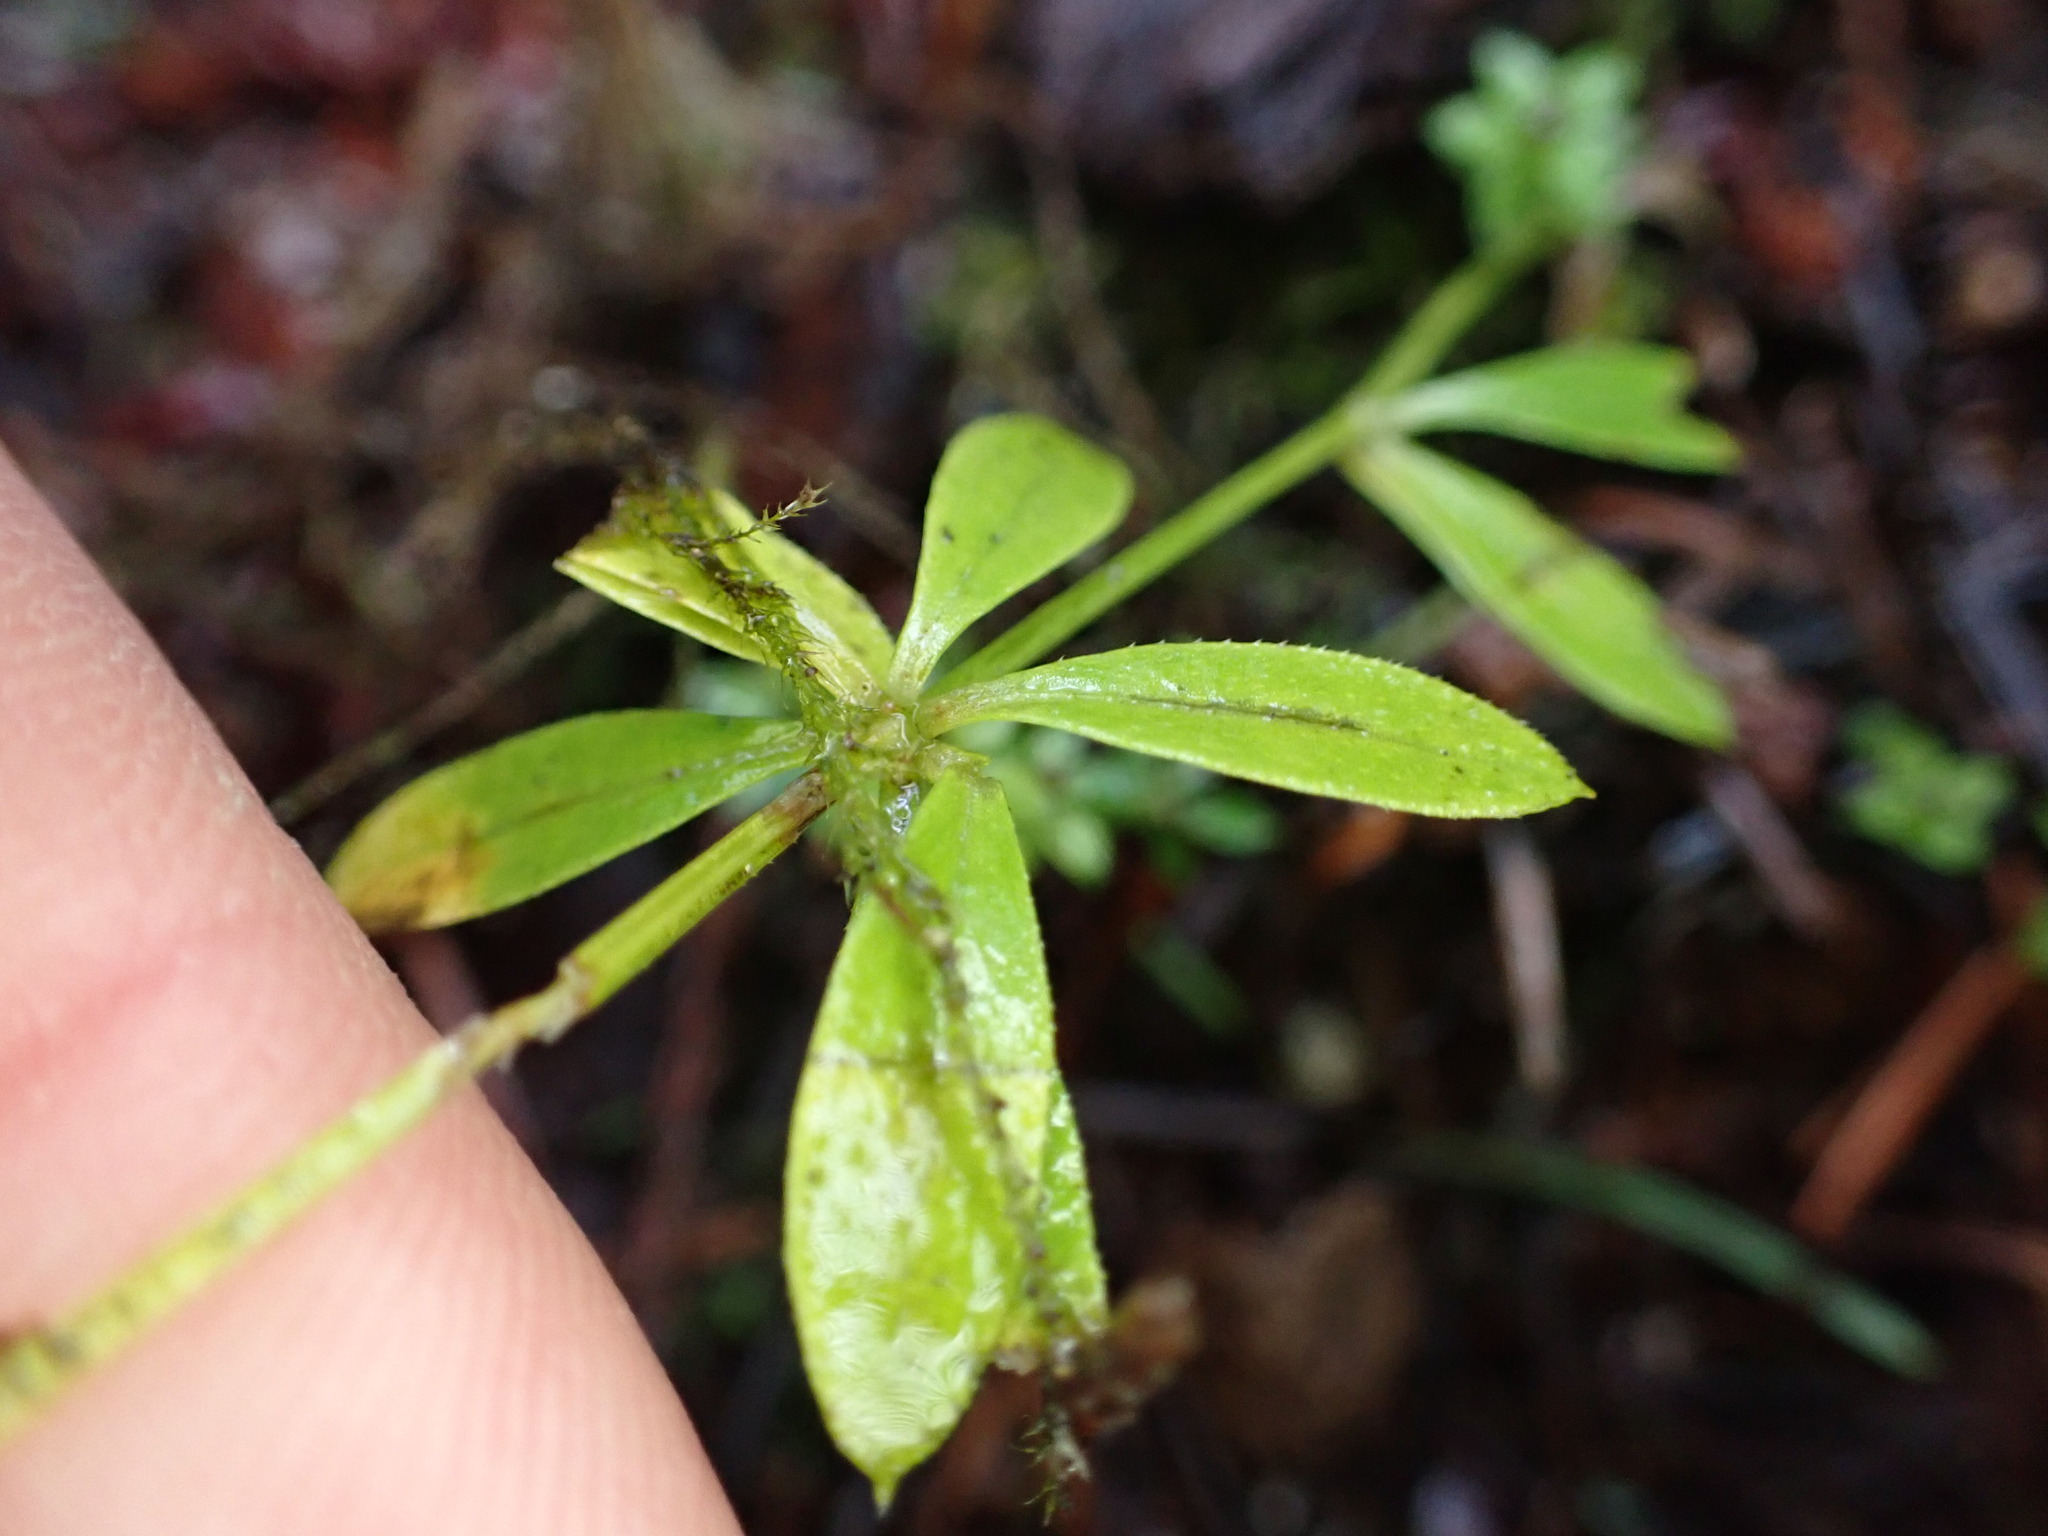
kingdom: Plantae
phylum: Tracheophyta
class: Magnoliopsida
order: Gentianales
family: Rubiaceae
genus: Galium
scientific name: Galium triflorum
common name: Fragrant bedstraw
